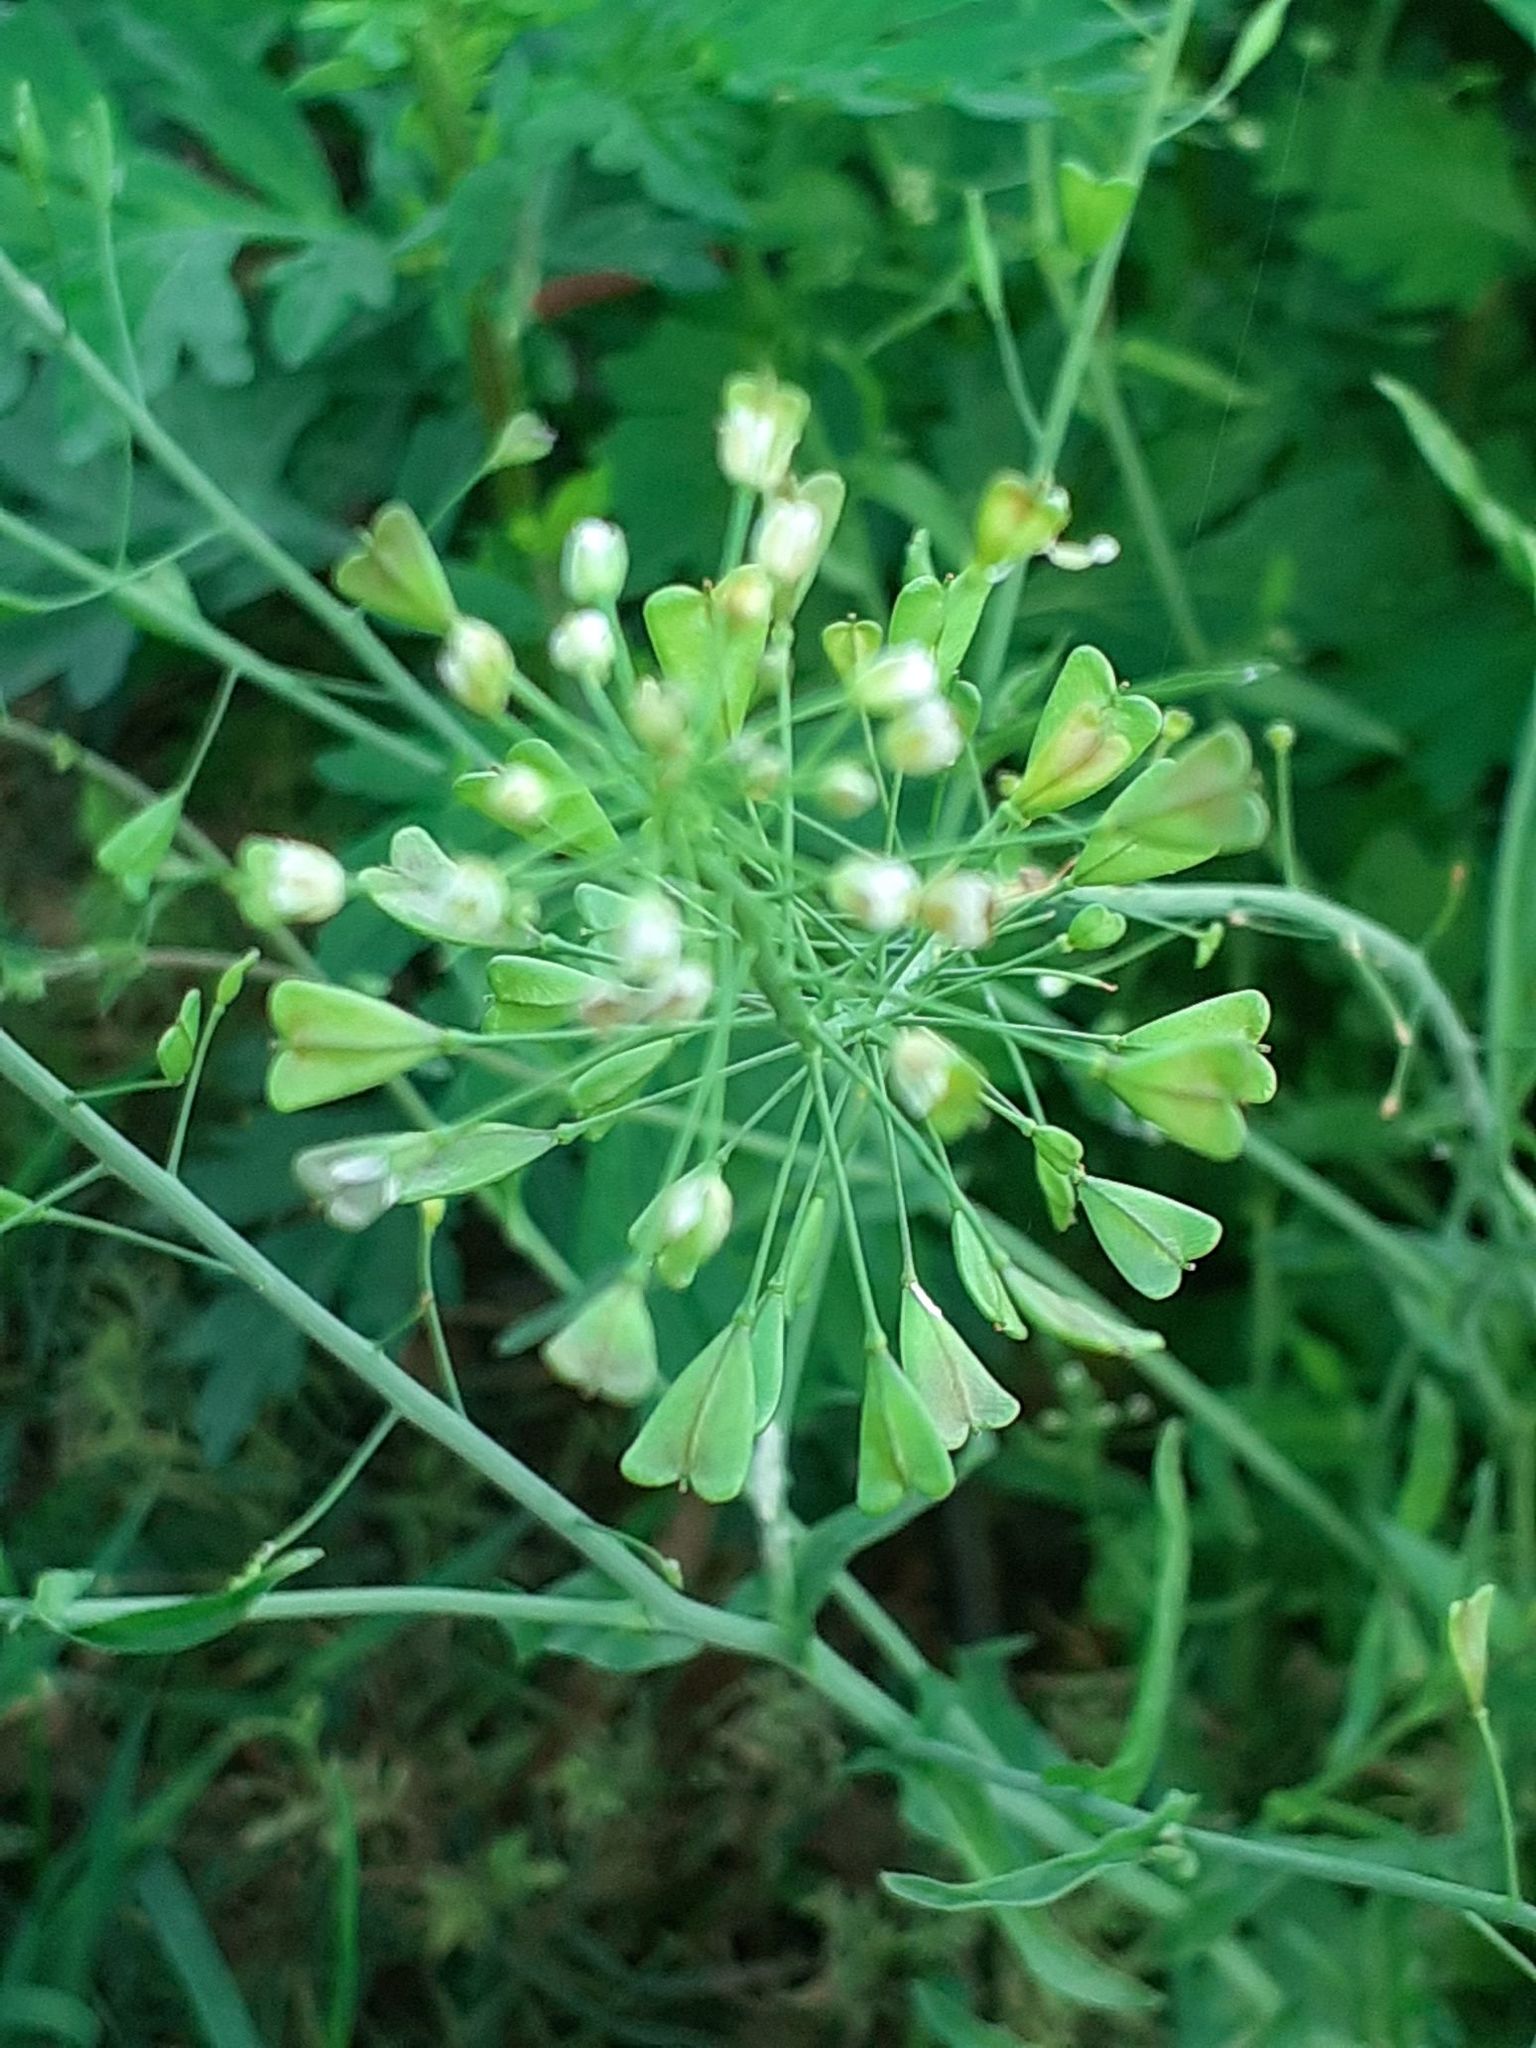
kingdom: Plantae
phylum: Tracheophyta
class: Magnoliopsida
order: Brassicales
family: Brassicaceae
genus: Capsella
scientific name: Capsella bursa-pastoris
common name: Shepherd's purse
